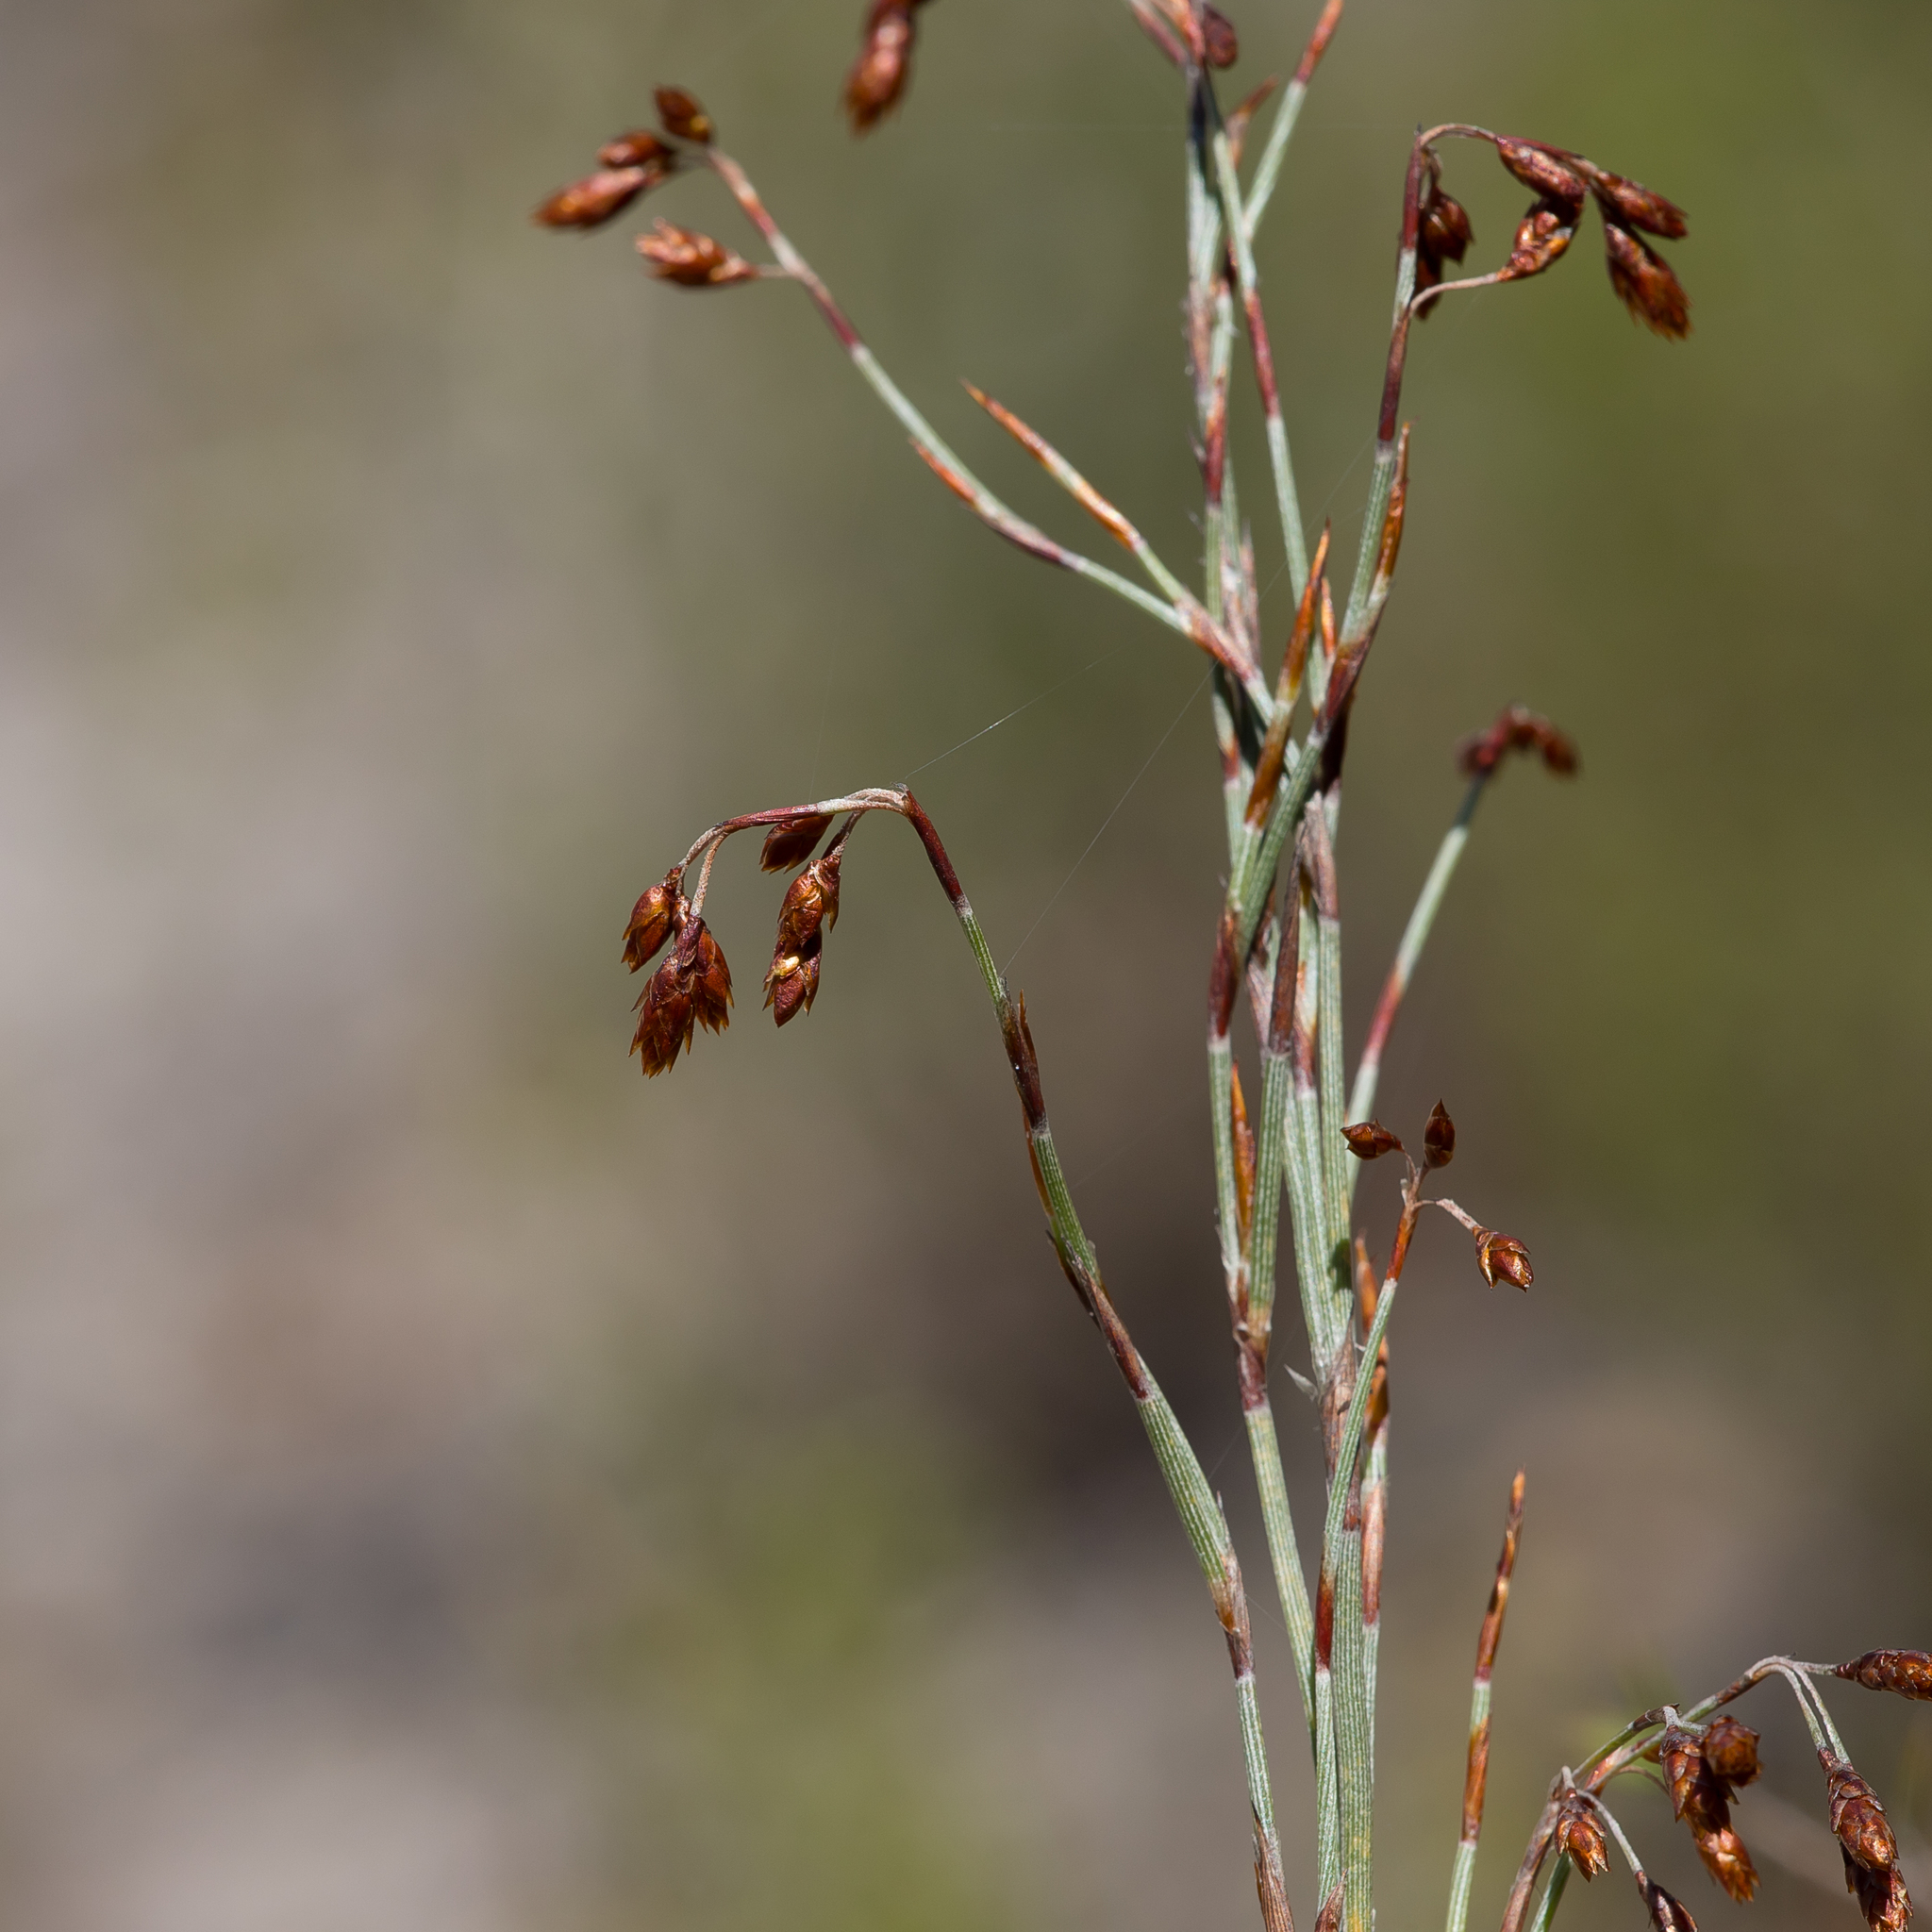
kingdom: Plantae
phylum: Tracheophyta
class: Liliopsida
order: Poales
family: Restionaceae
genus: Hypolaena
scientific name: Hypolaena fastigiata
